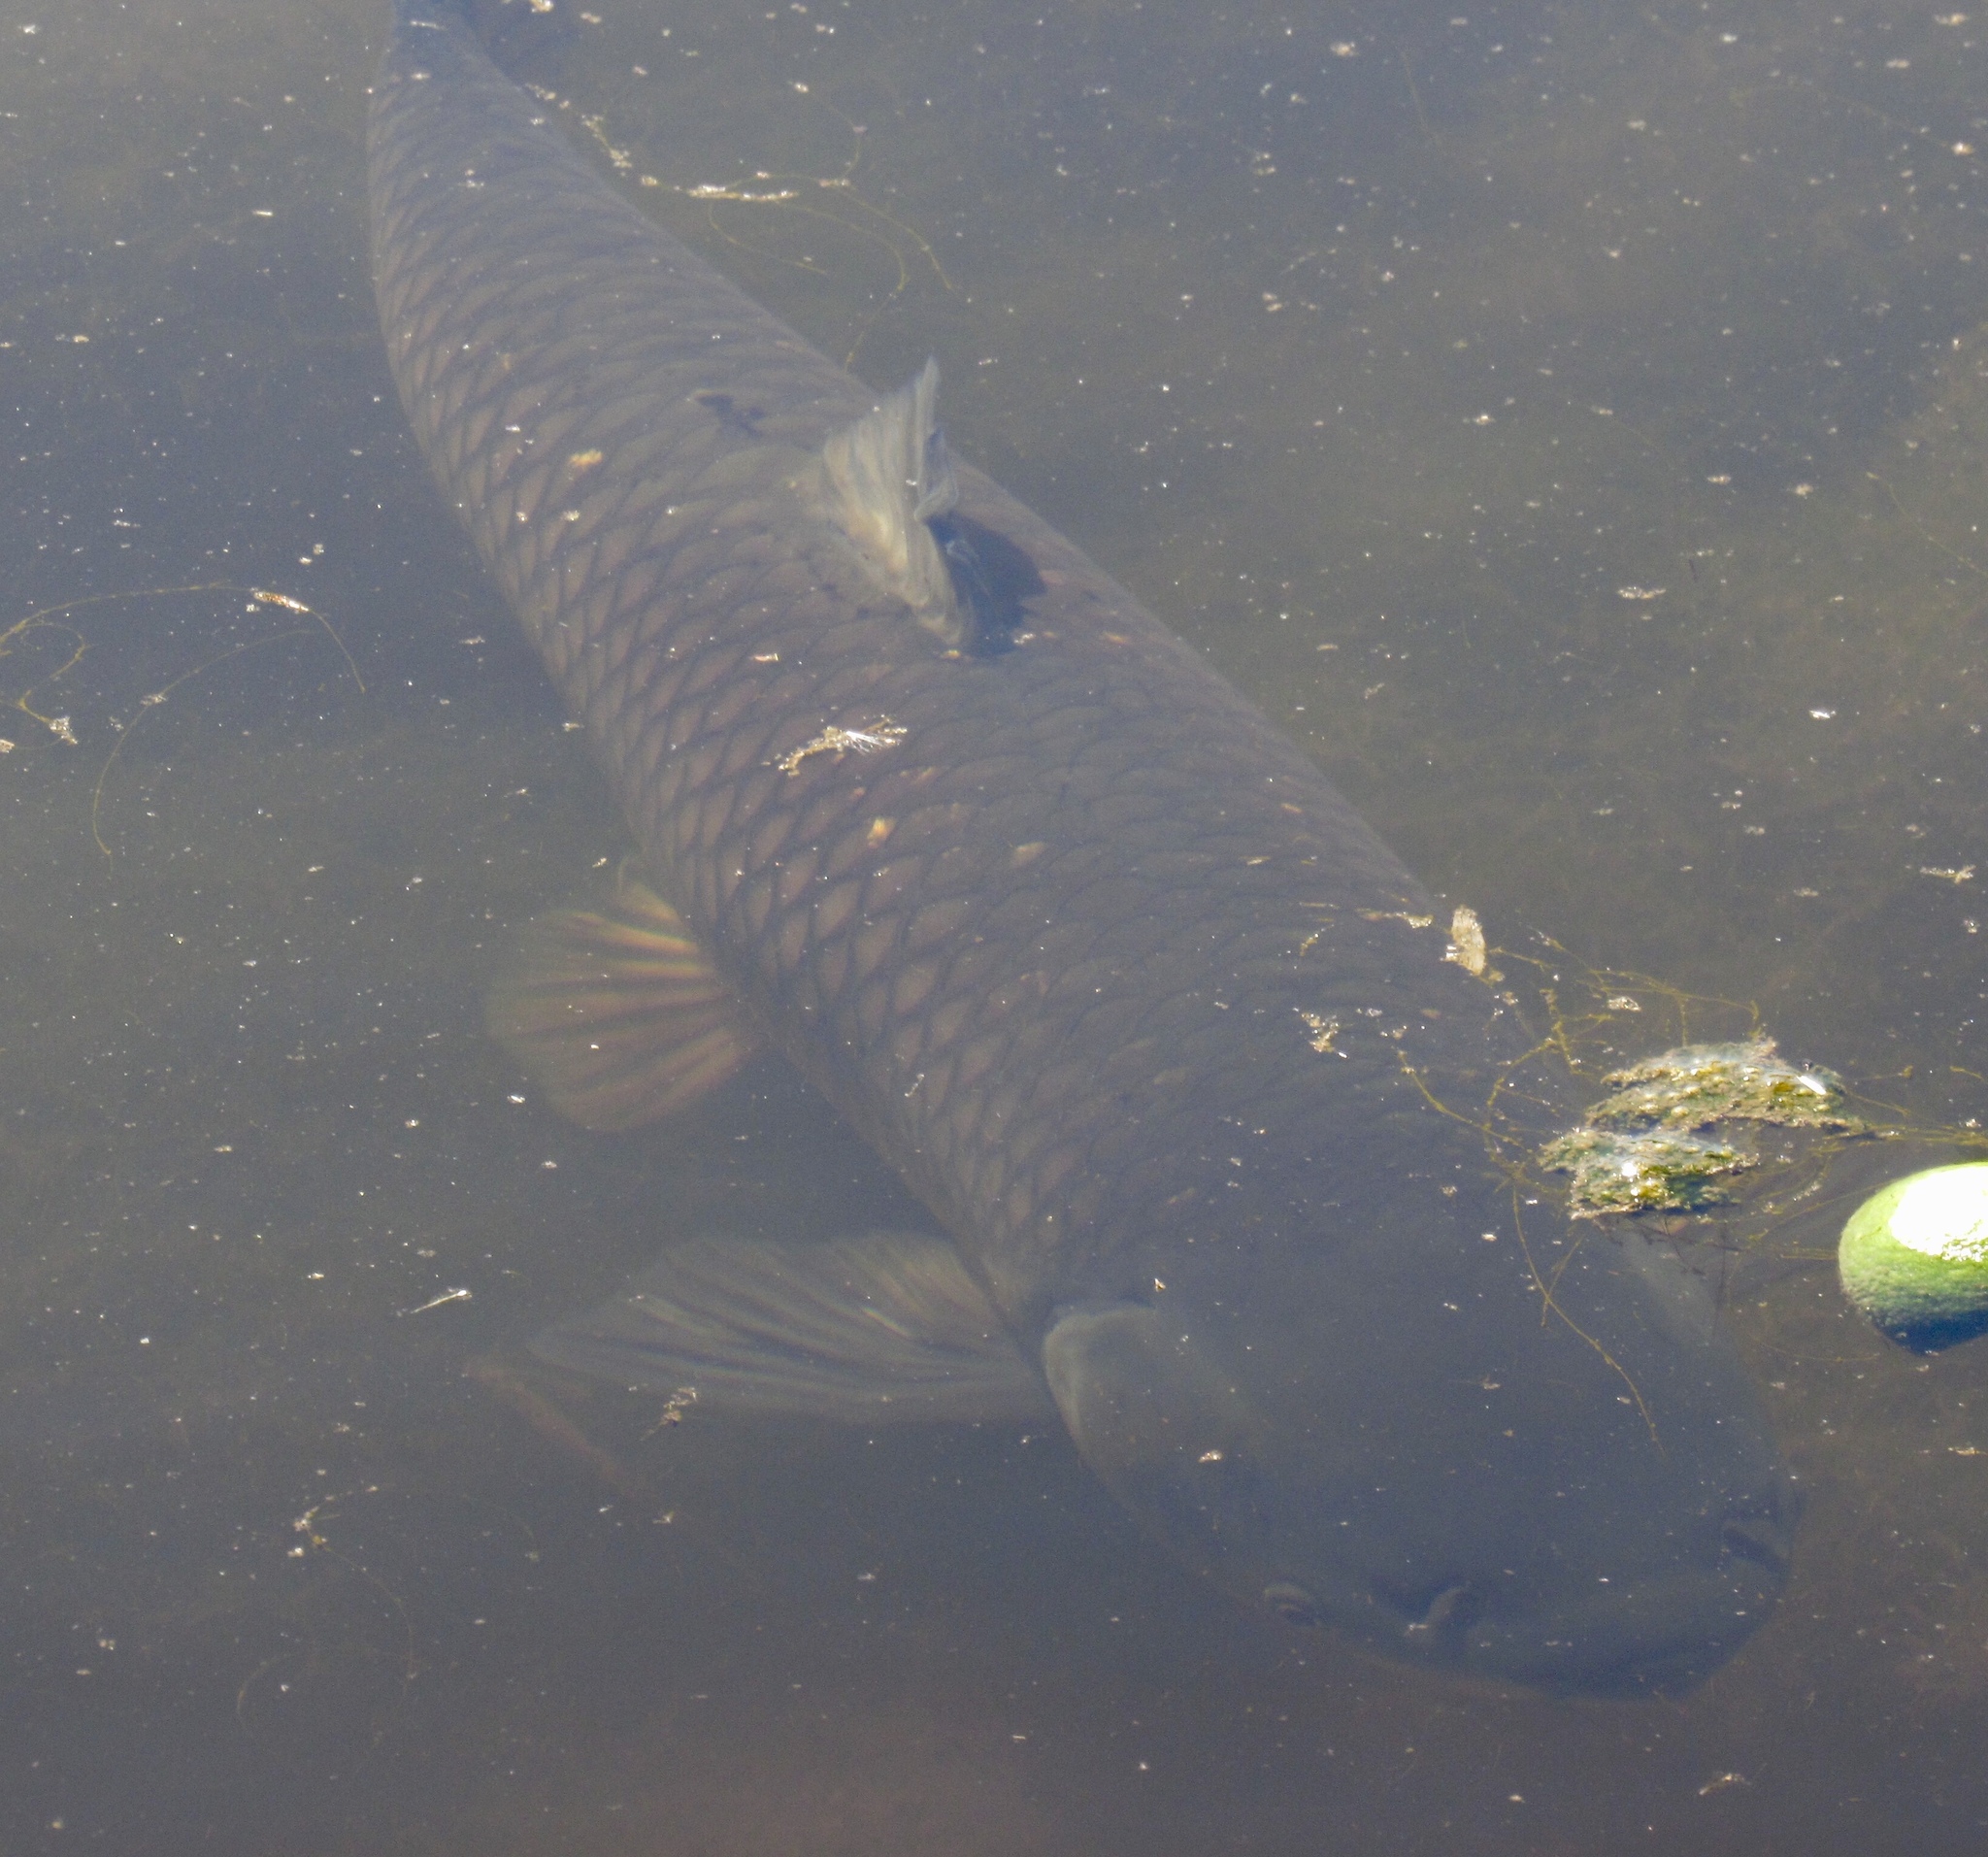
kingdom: Animalia
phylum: Chordata
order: Cypriniformes
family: Cyprinidae
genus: Ctenopharyngodon
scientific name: Ctenopharyngodon idella
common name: Grass carp
